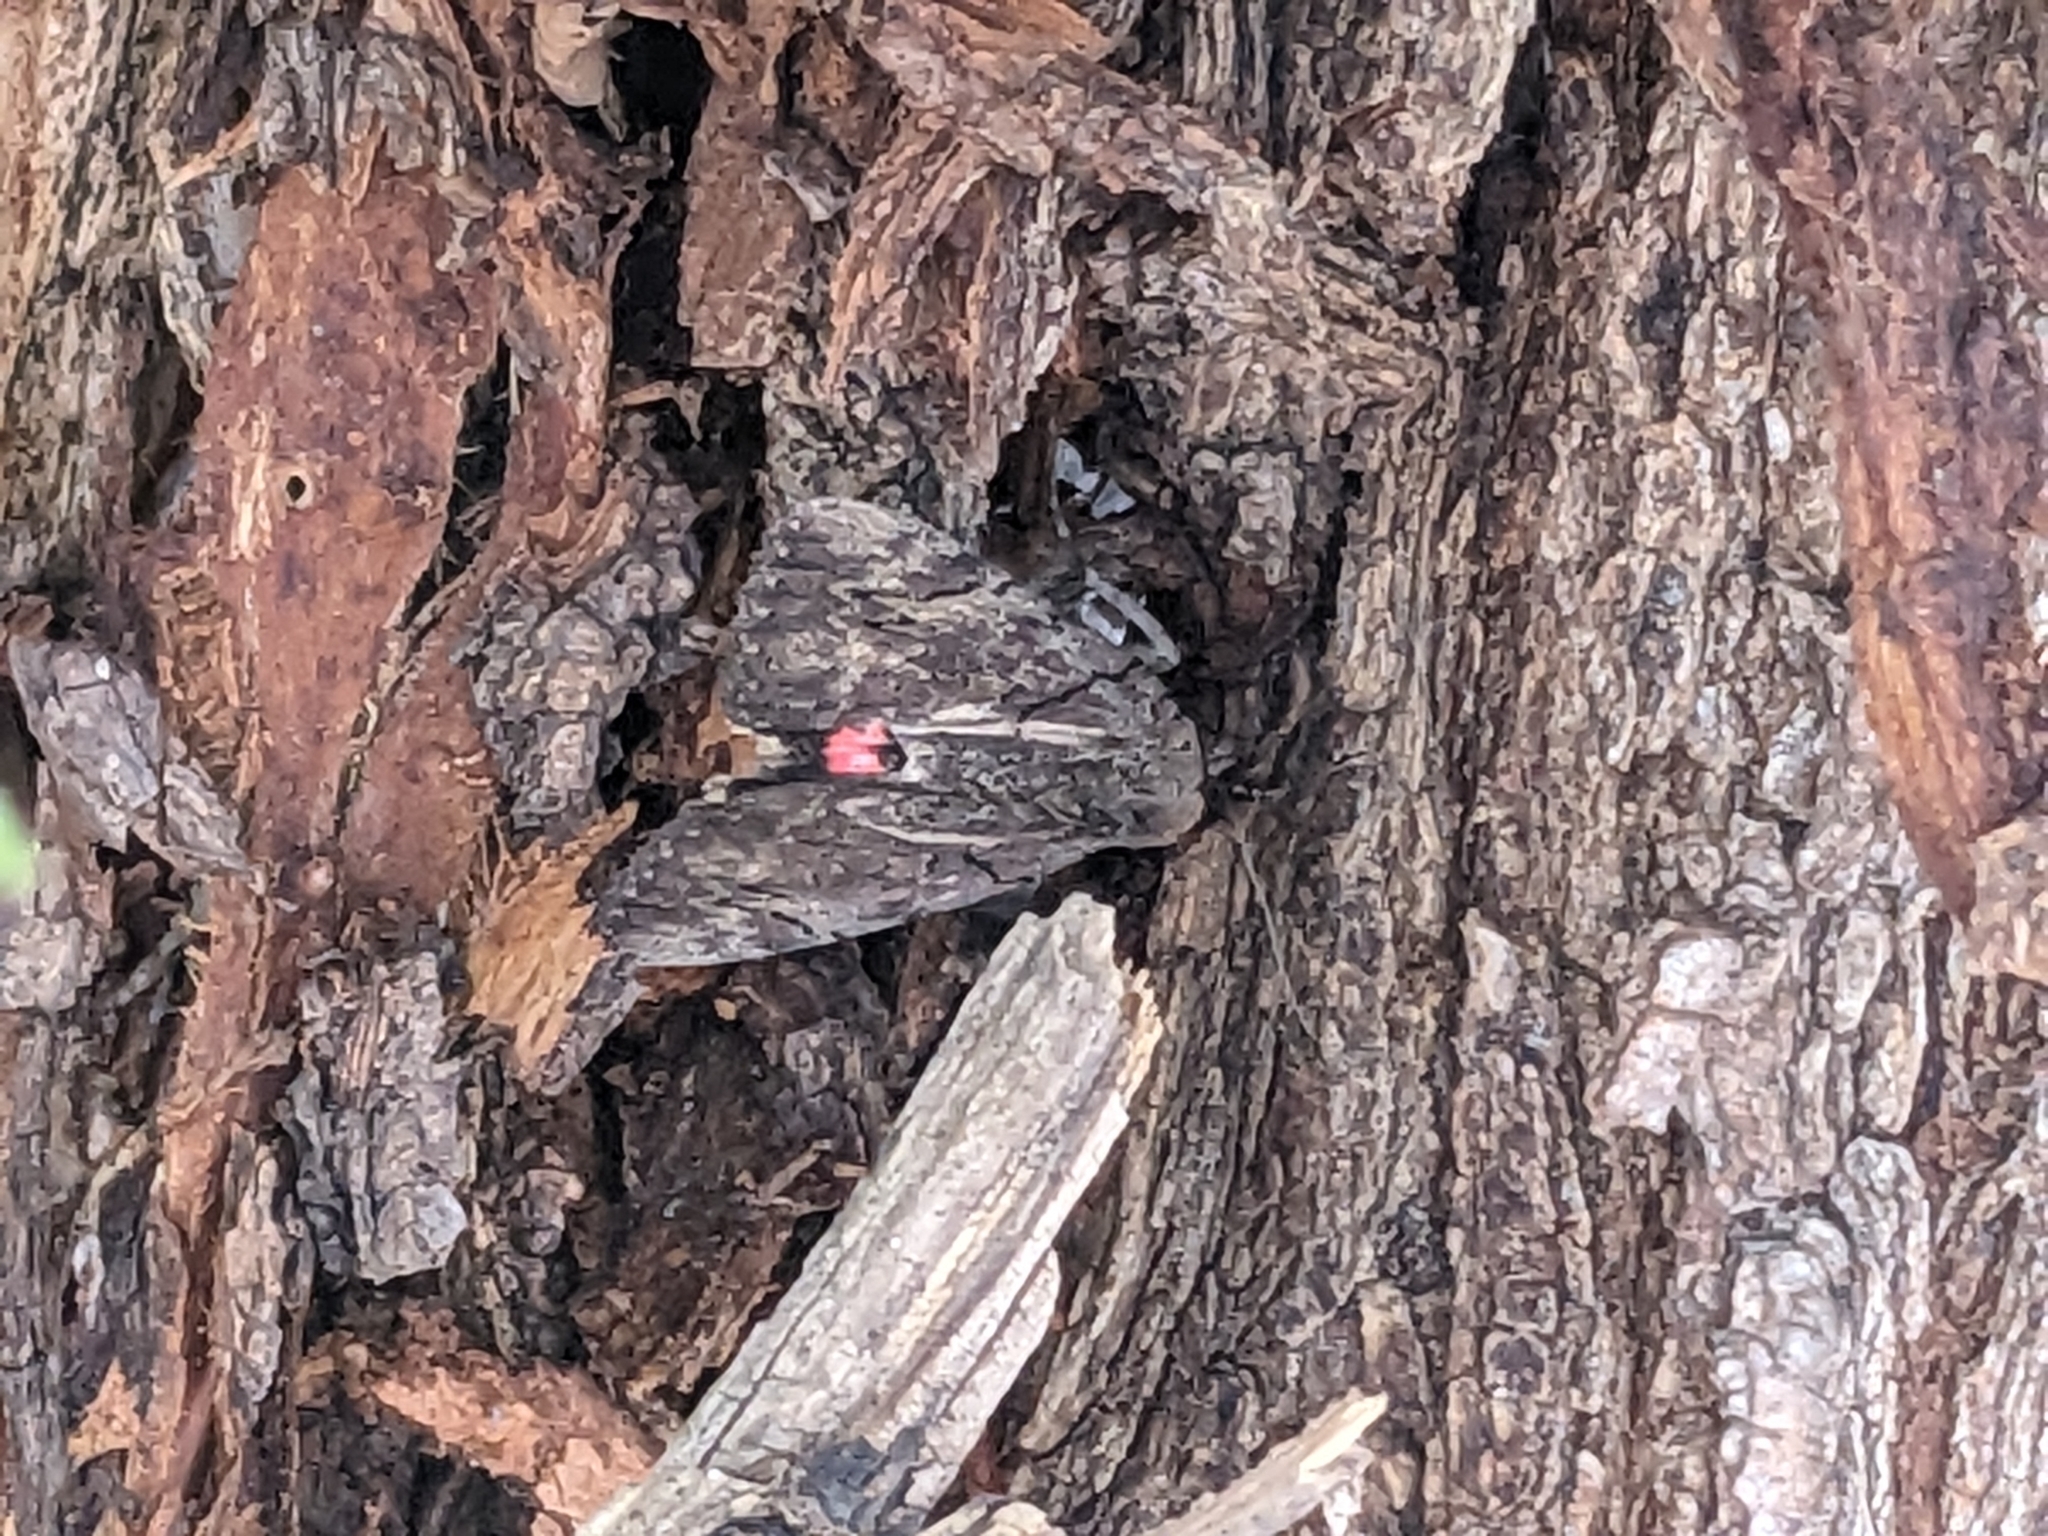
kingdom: Animalia
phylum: Arthropoda
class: Insecta
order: Lepidoptera
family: Erebidae
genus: Catocala
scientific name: Catocala cara
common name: Darling underwing
